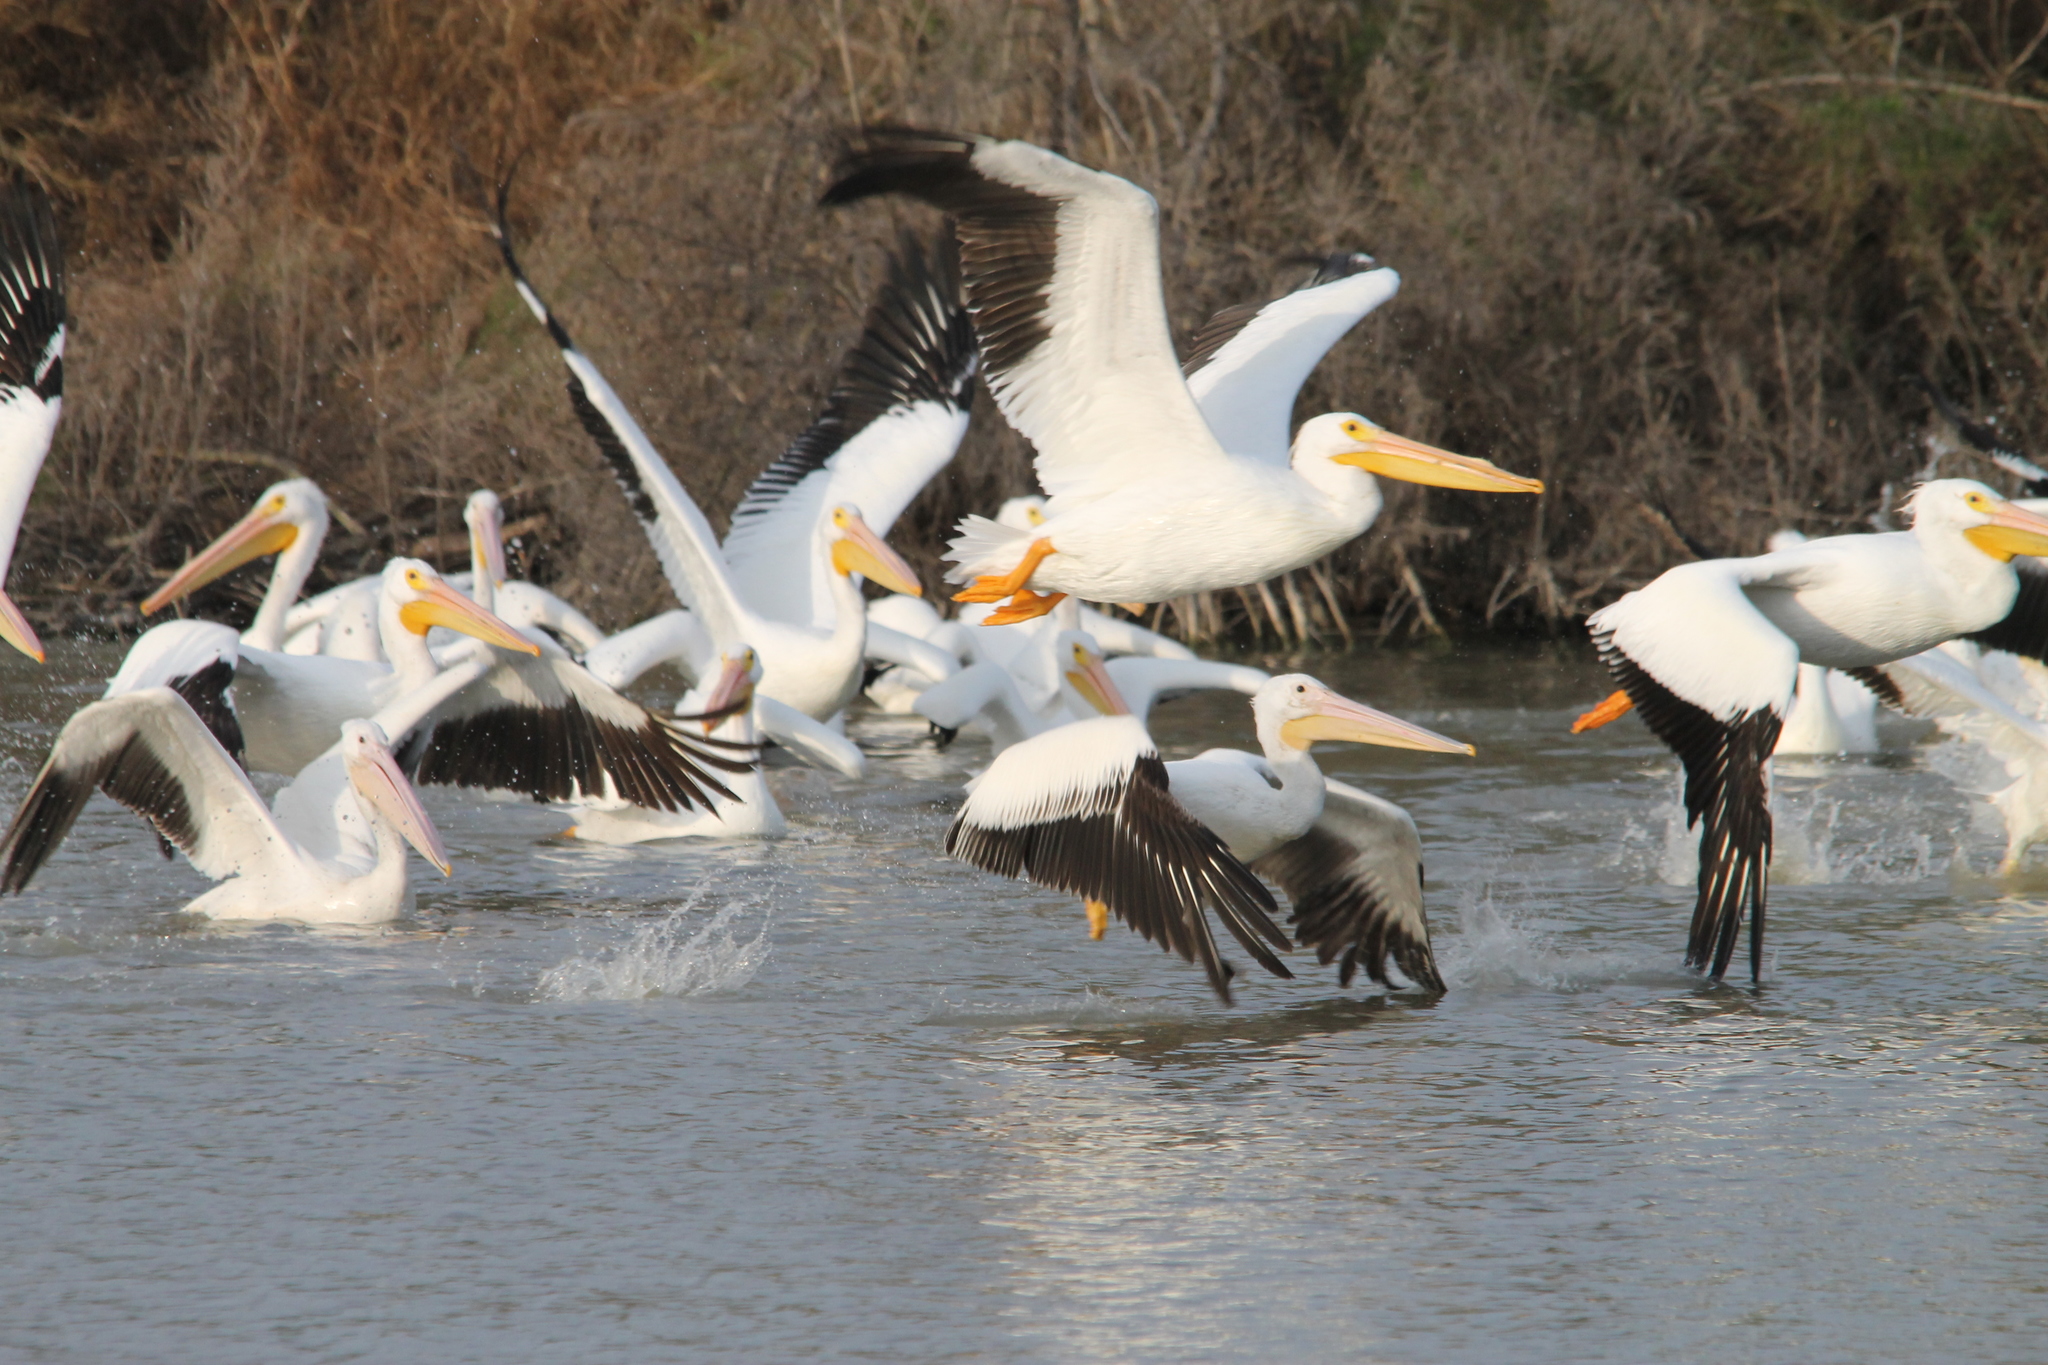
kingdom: Animalia
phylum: Chordata
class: Aves
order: Pelecaniformes
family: Pelecanidae
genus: Pelecanus
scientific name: Pelecanus erythrorhynchos
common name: American white pelican
